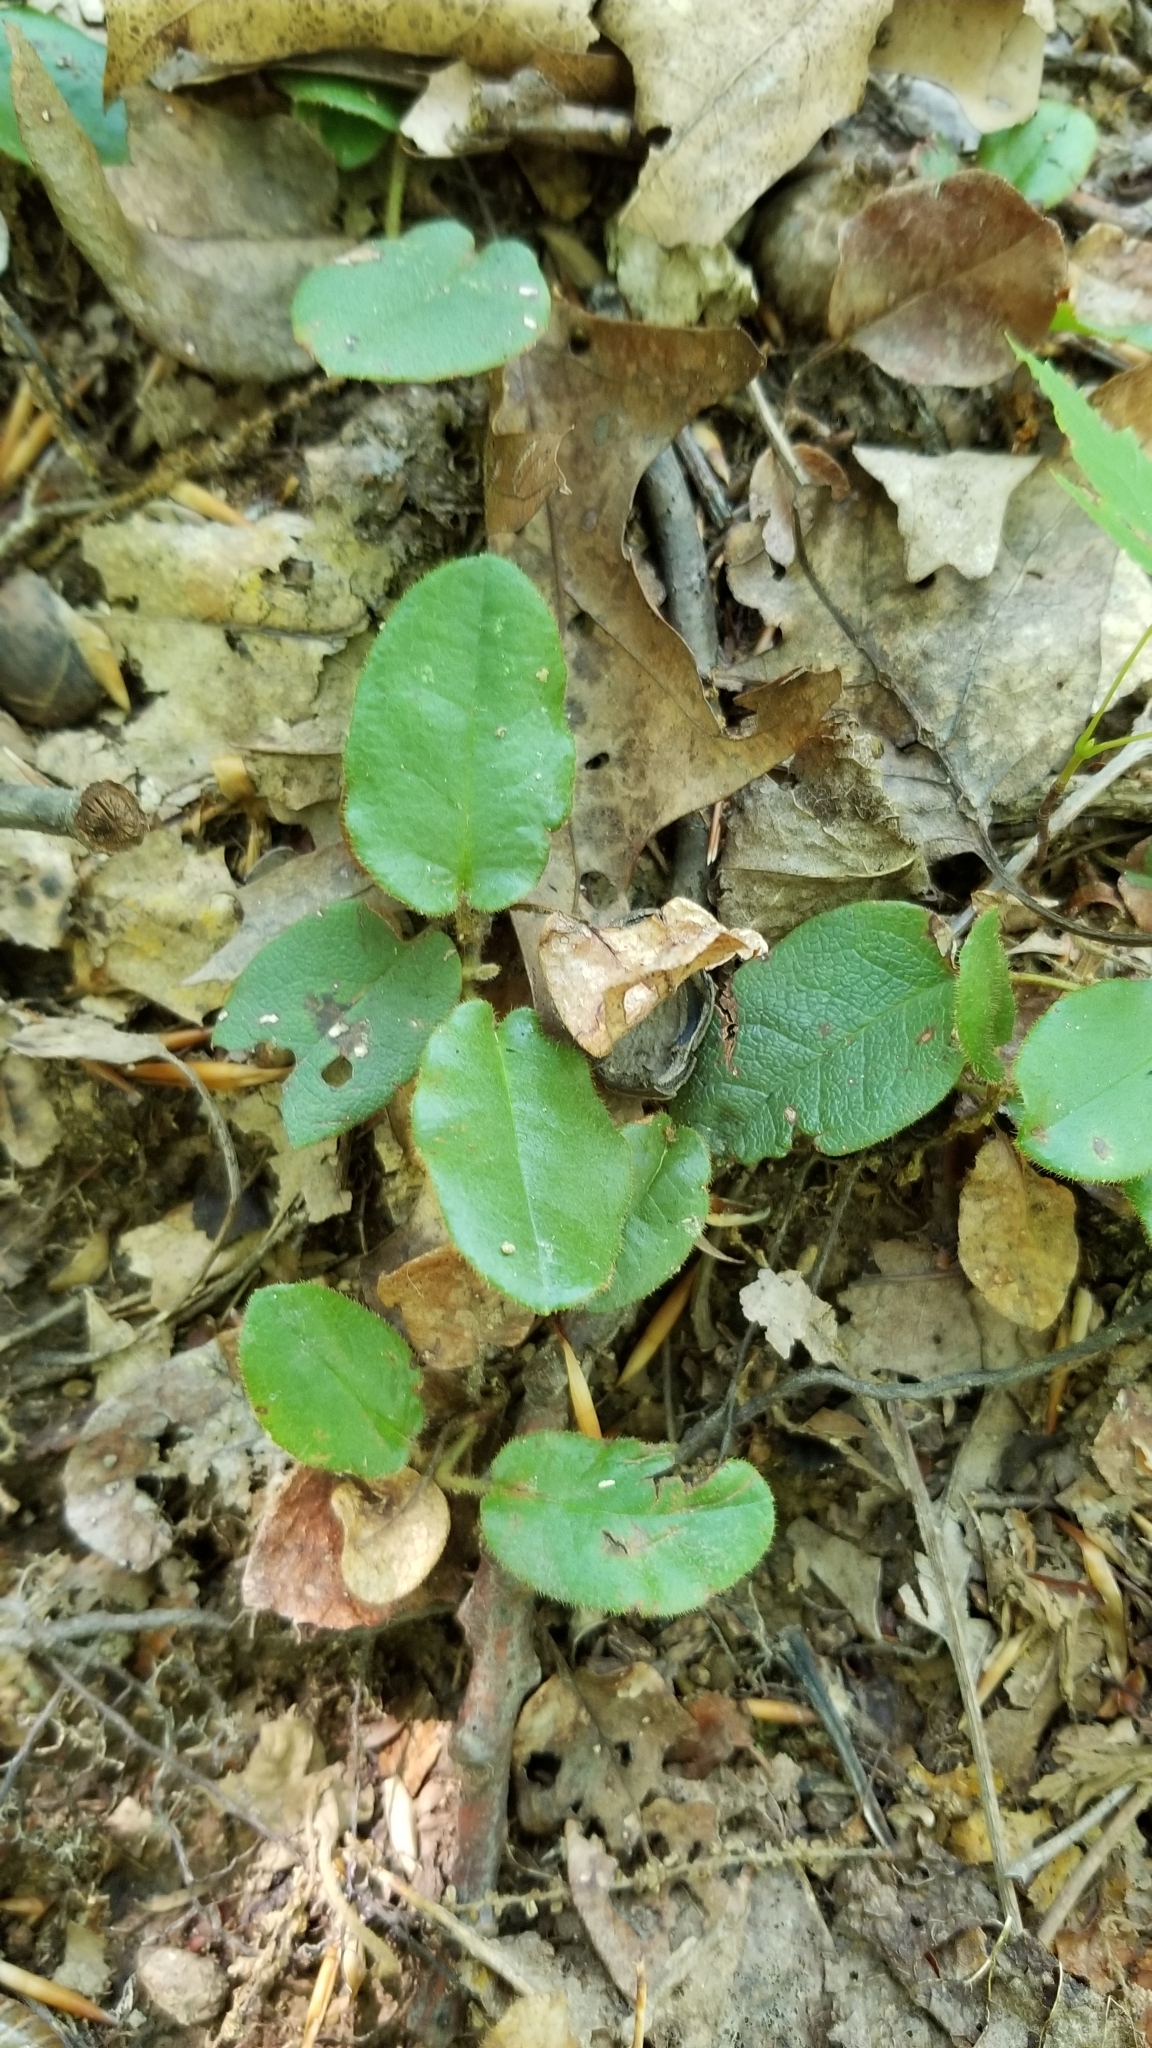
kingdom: Plantae
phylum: Tracheophyta
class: Magnoliopsida
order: Ericales
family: Ericaceae
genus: Epigaea
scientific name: Epigaea repens
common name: Gravelroot
